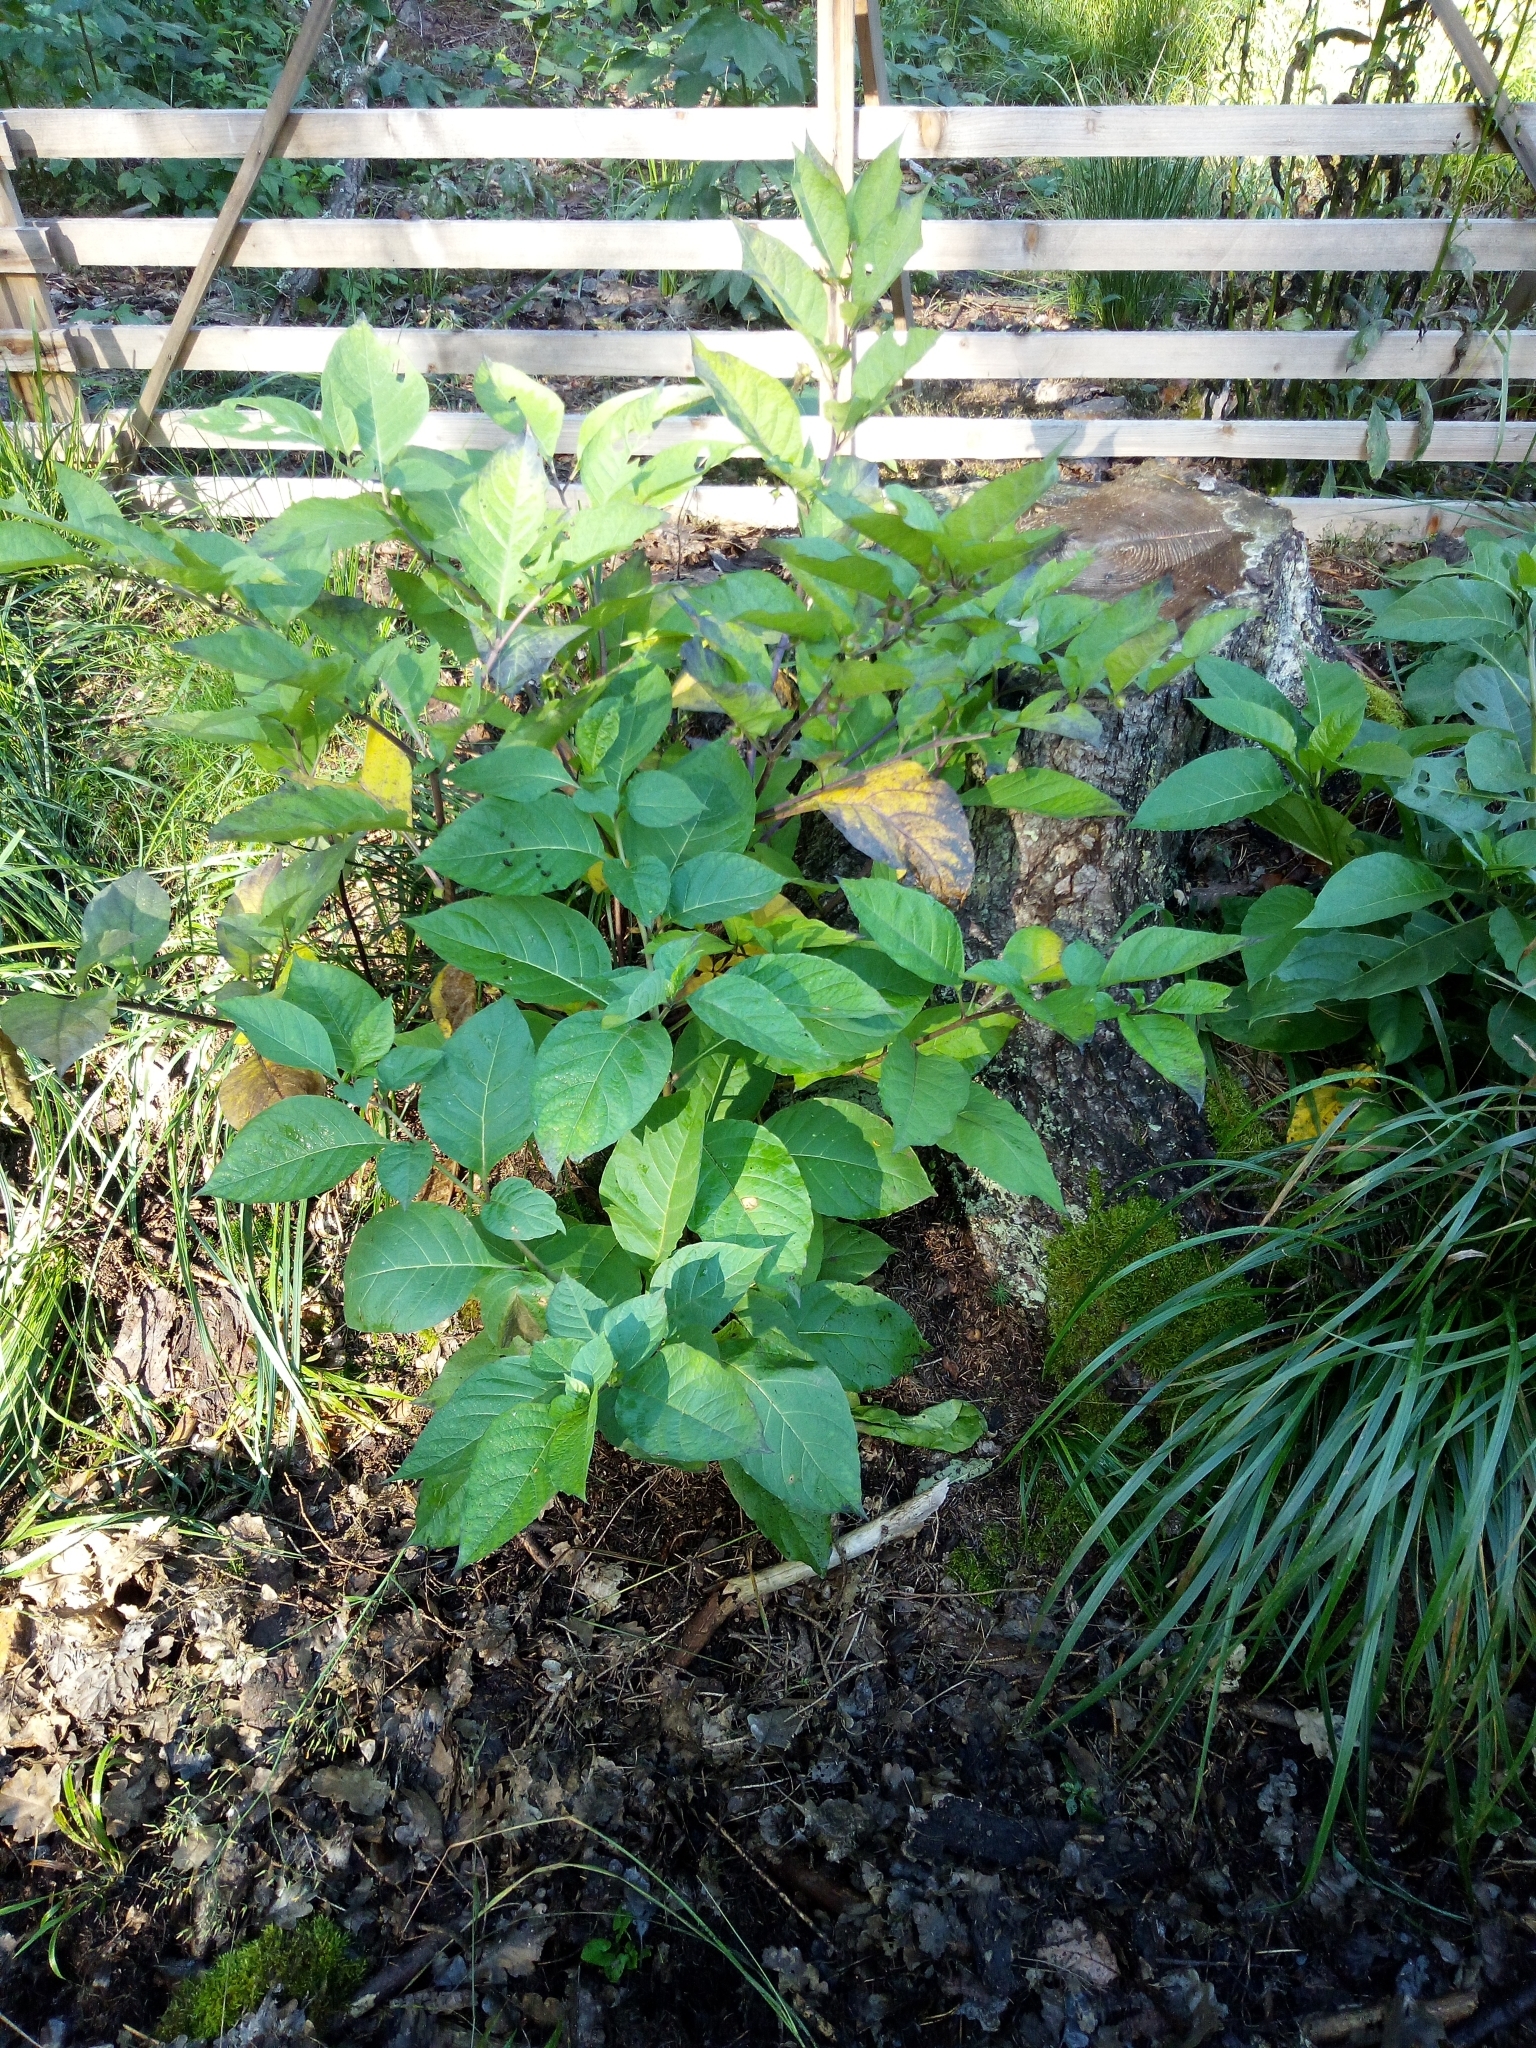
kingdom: Plantae
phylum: Tracheophyta
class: Magnoliopsida
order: Solanales
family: Solanaceae
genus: Atropa
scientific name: Atropa belladonna
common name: Deadly nightshade
